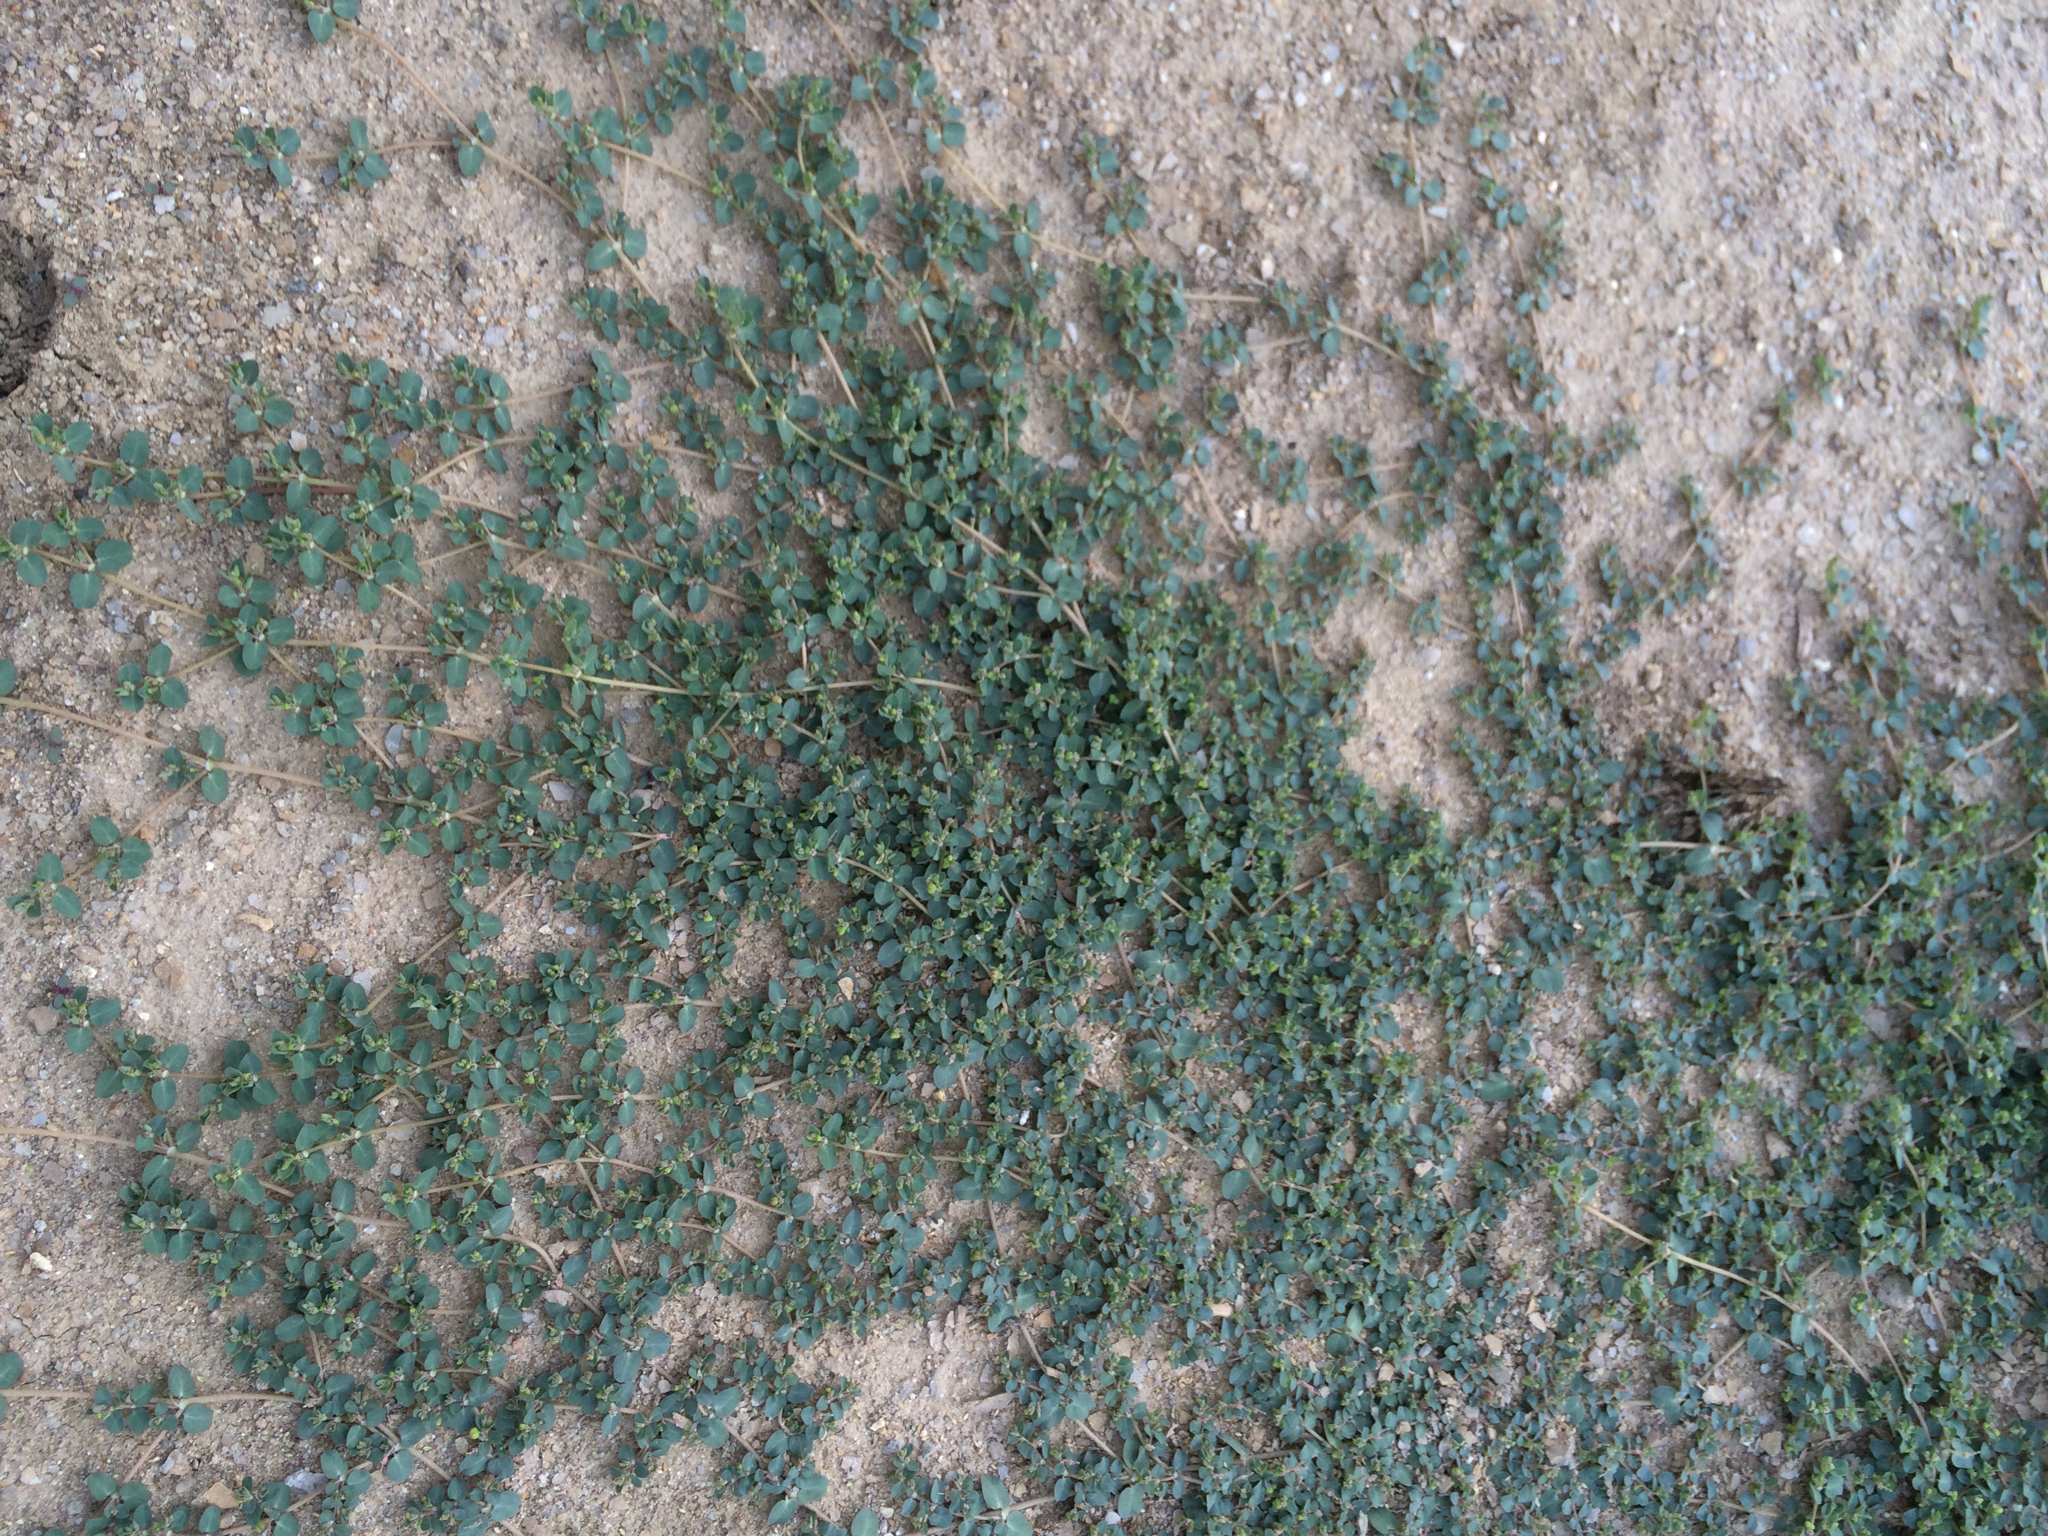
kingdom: Plantae
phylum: Tracheophyta
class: Magnoliopsida
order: Malpighiales
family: Euphorbiaceae
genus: Euphorbia
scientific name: Euphorbia serpens
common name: Matted sandmat
